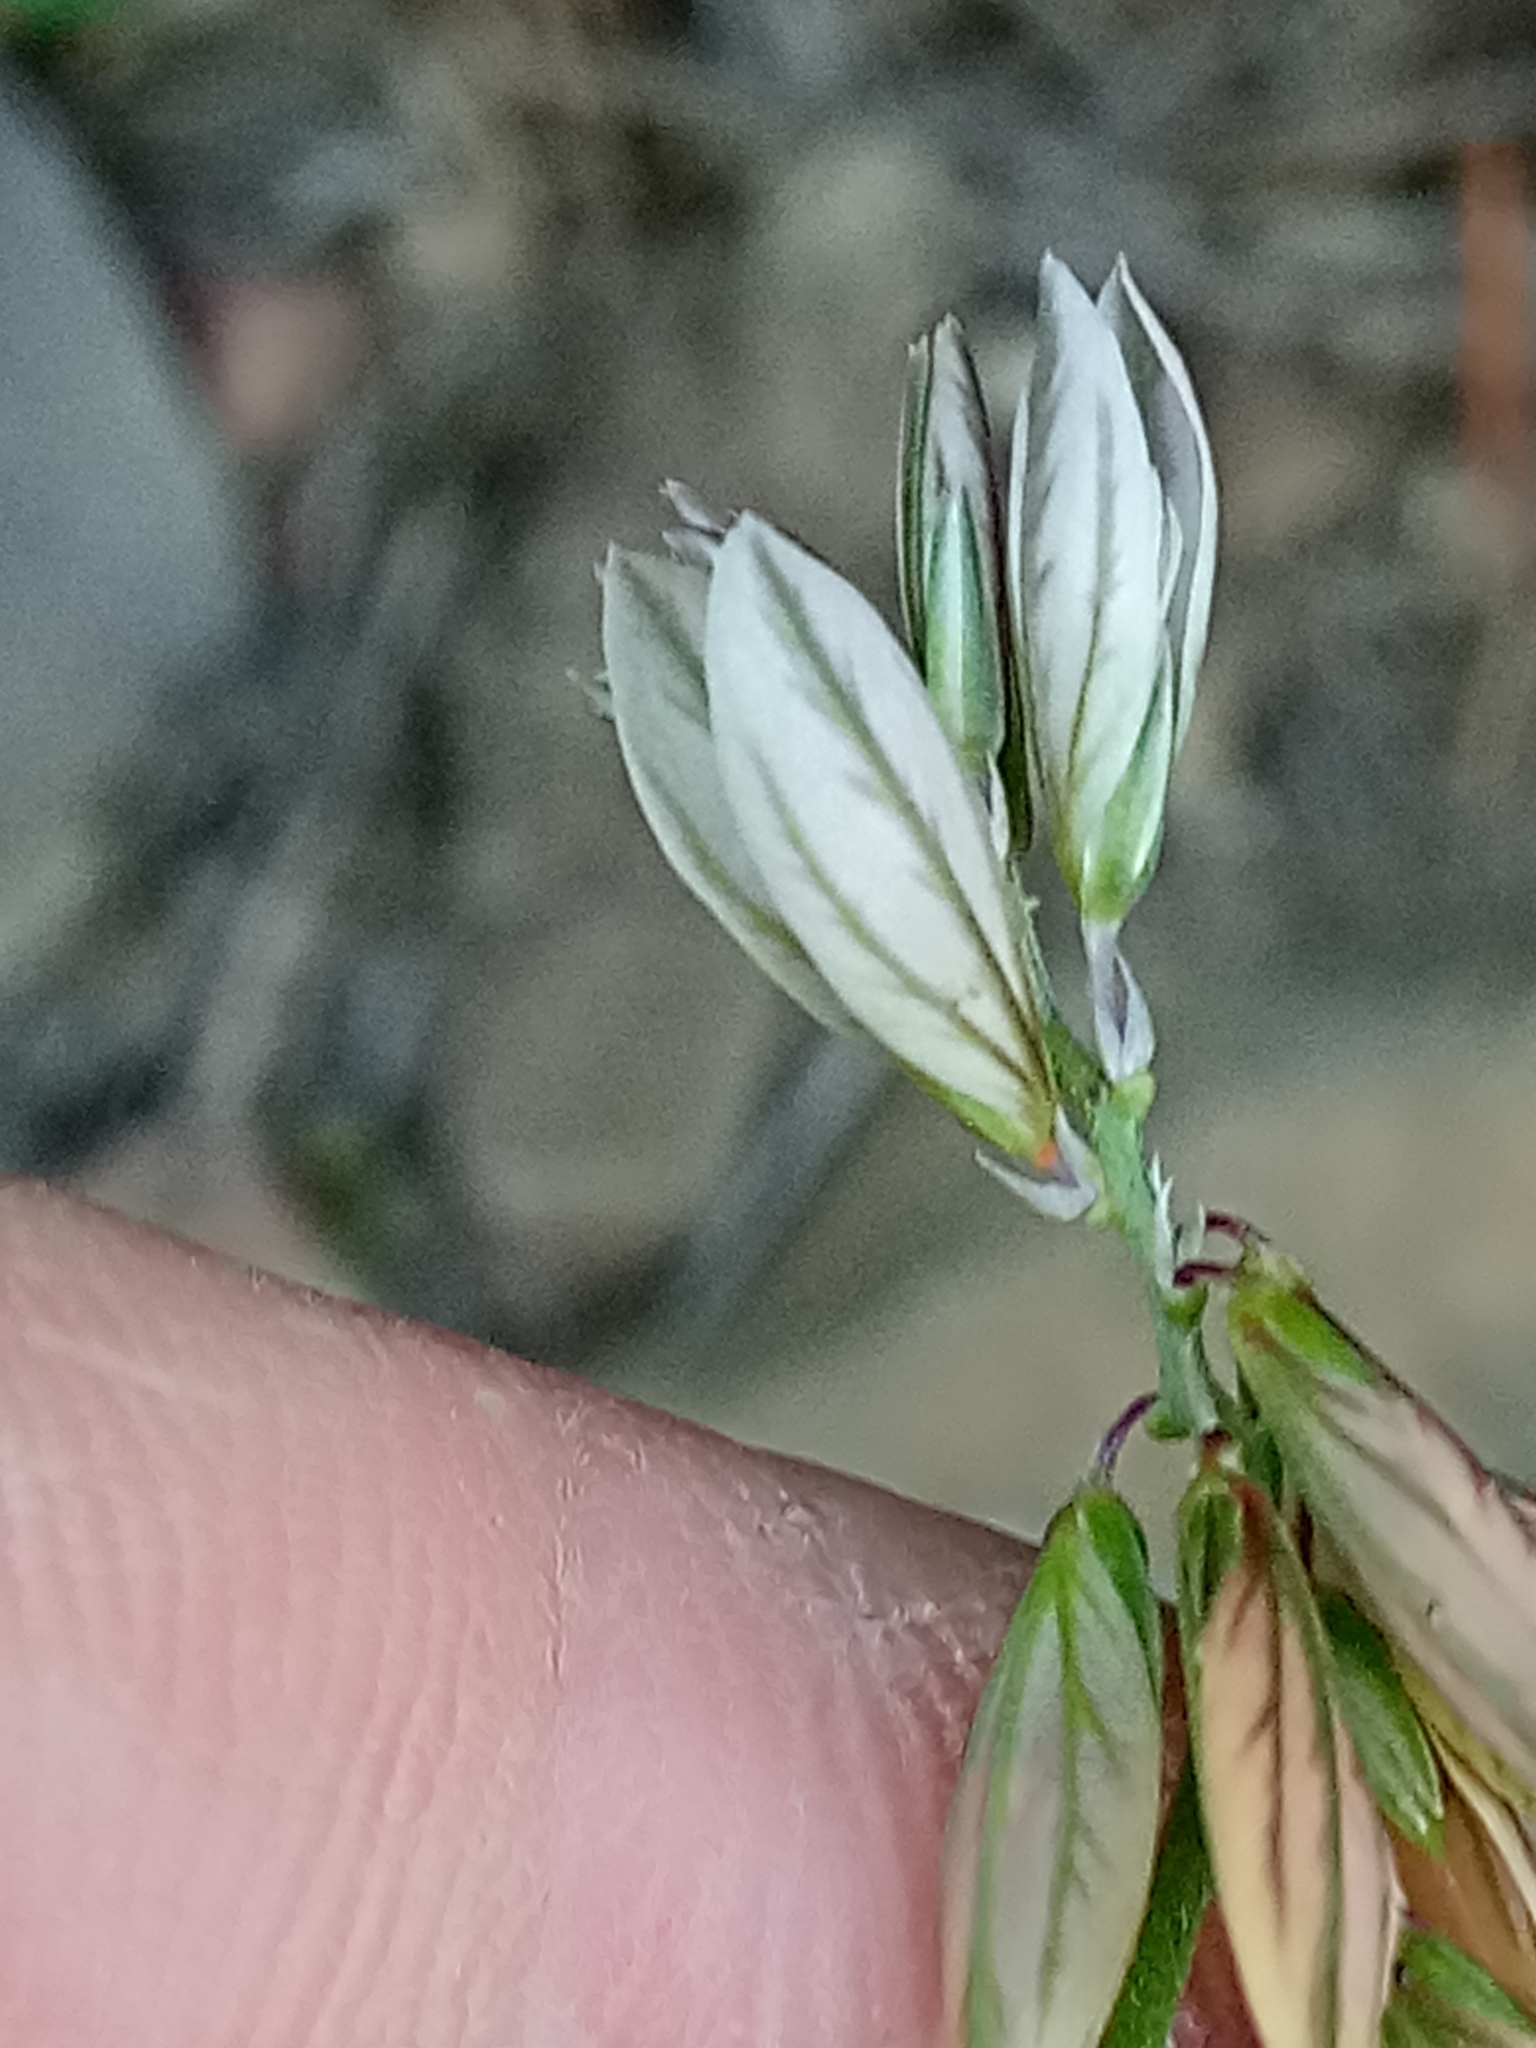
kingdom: Plantae
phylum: Tracheophyta
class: Magnoliopsida
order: Fabales
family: Polygalaceae
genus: Polygala
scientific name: Polygala monspeliaca
